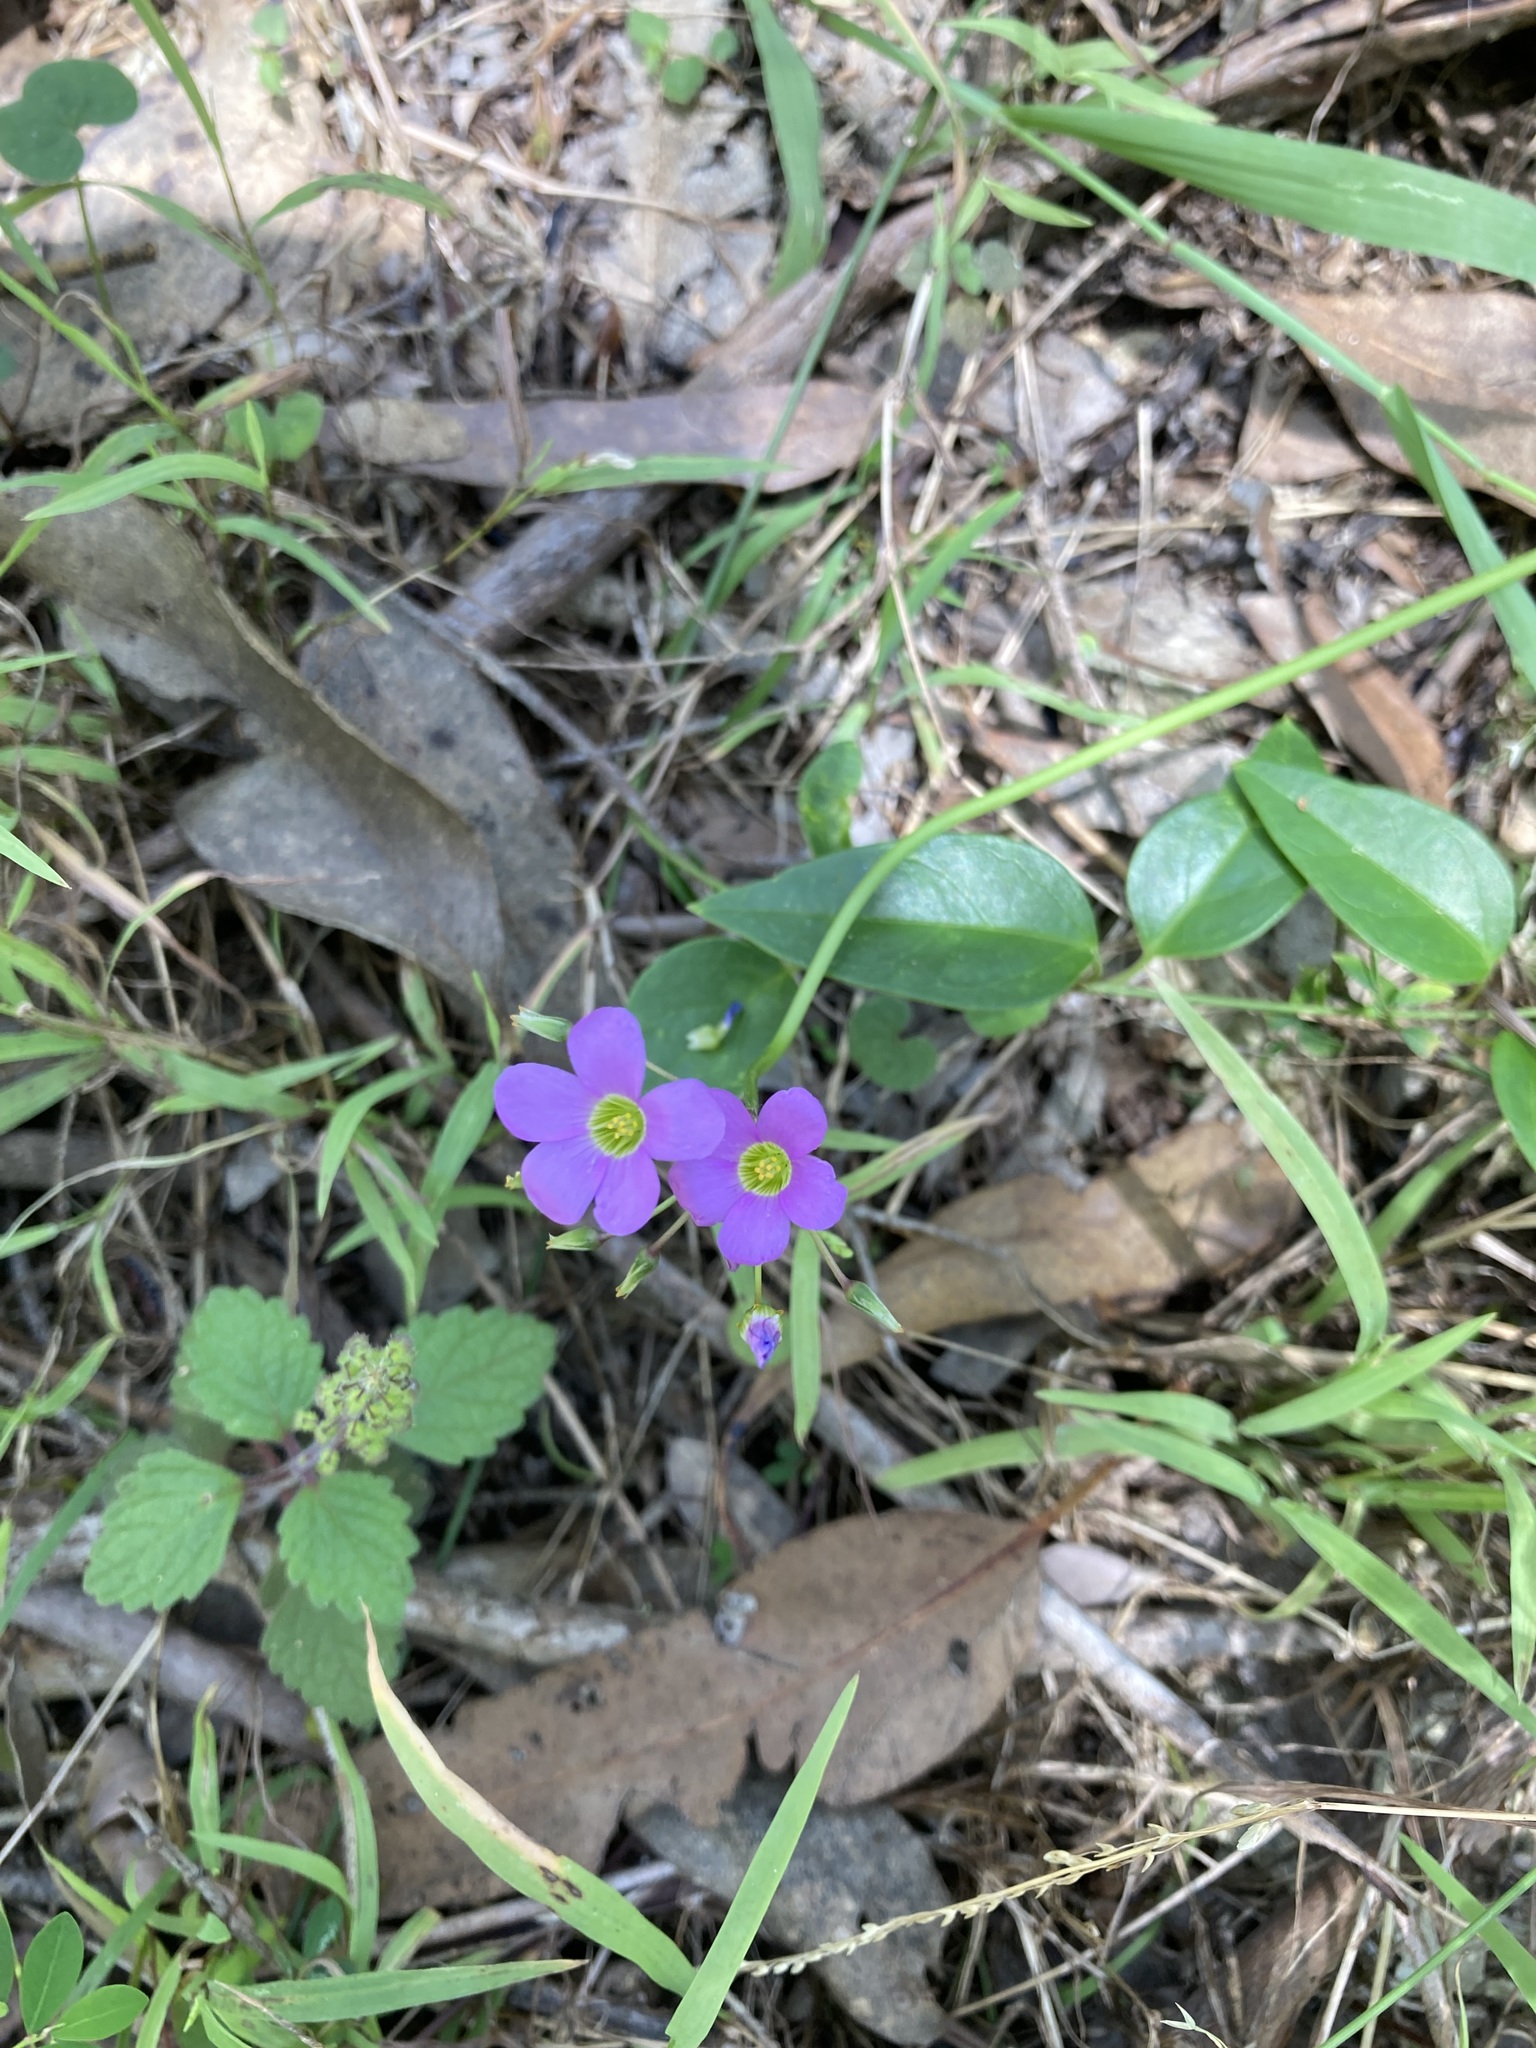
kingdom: Plantae
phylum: Tracheophyta
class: Magnoliopsida
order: Oxalidales
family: Oxalidaceae
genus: Oxalis
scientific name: Oxalis latifolia
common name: Garden pink-sorrel
